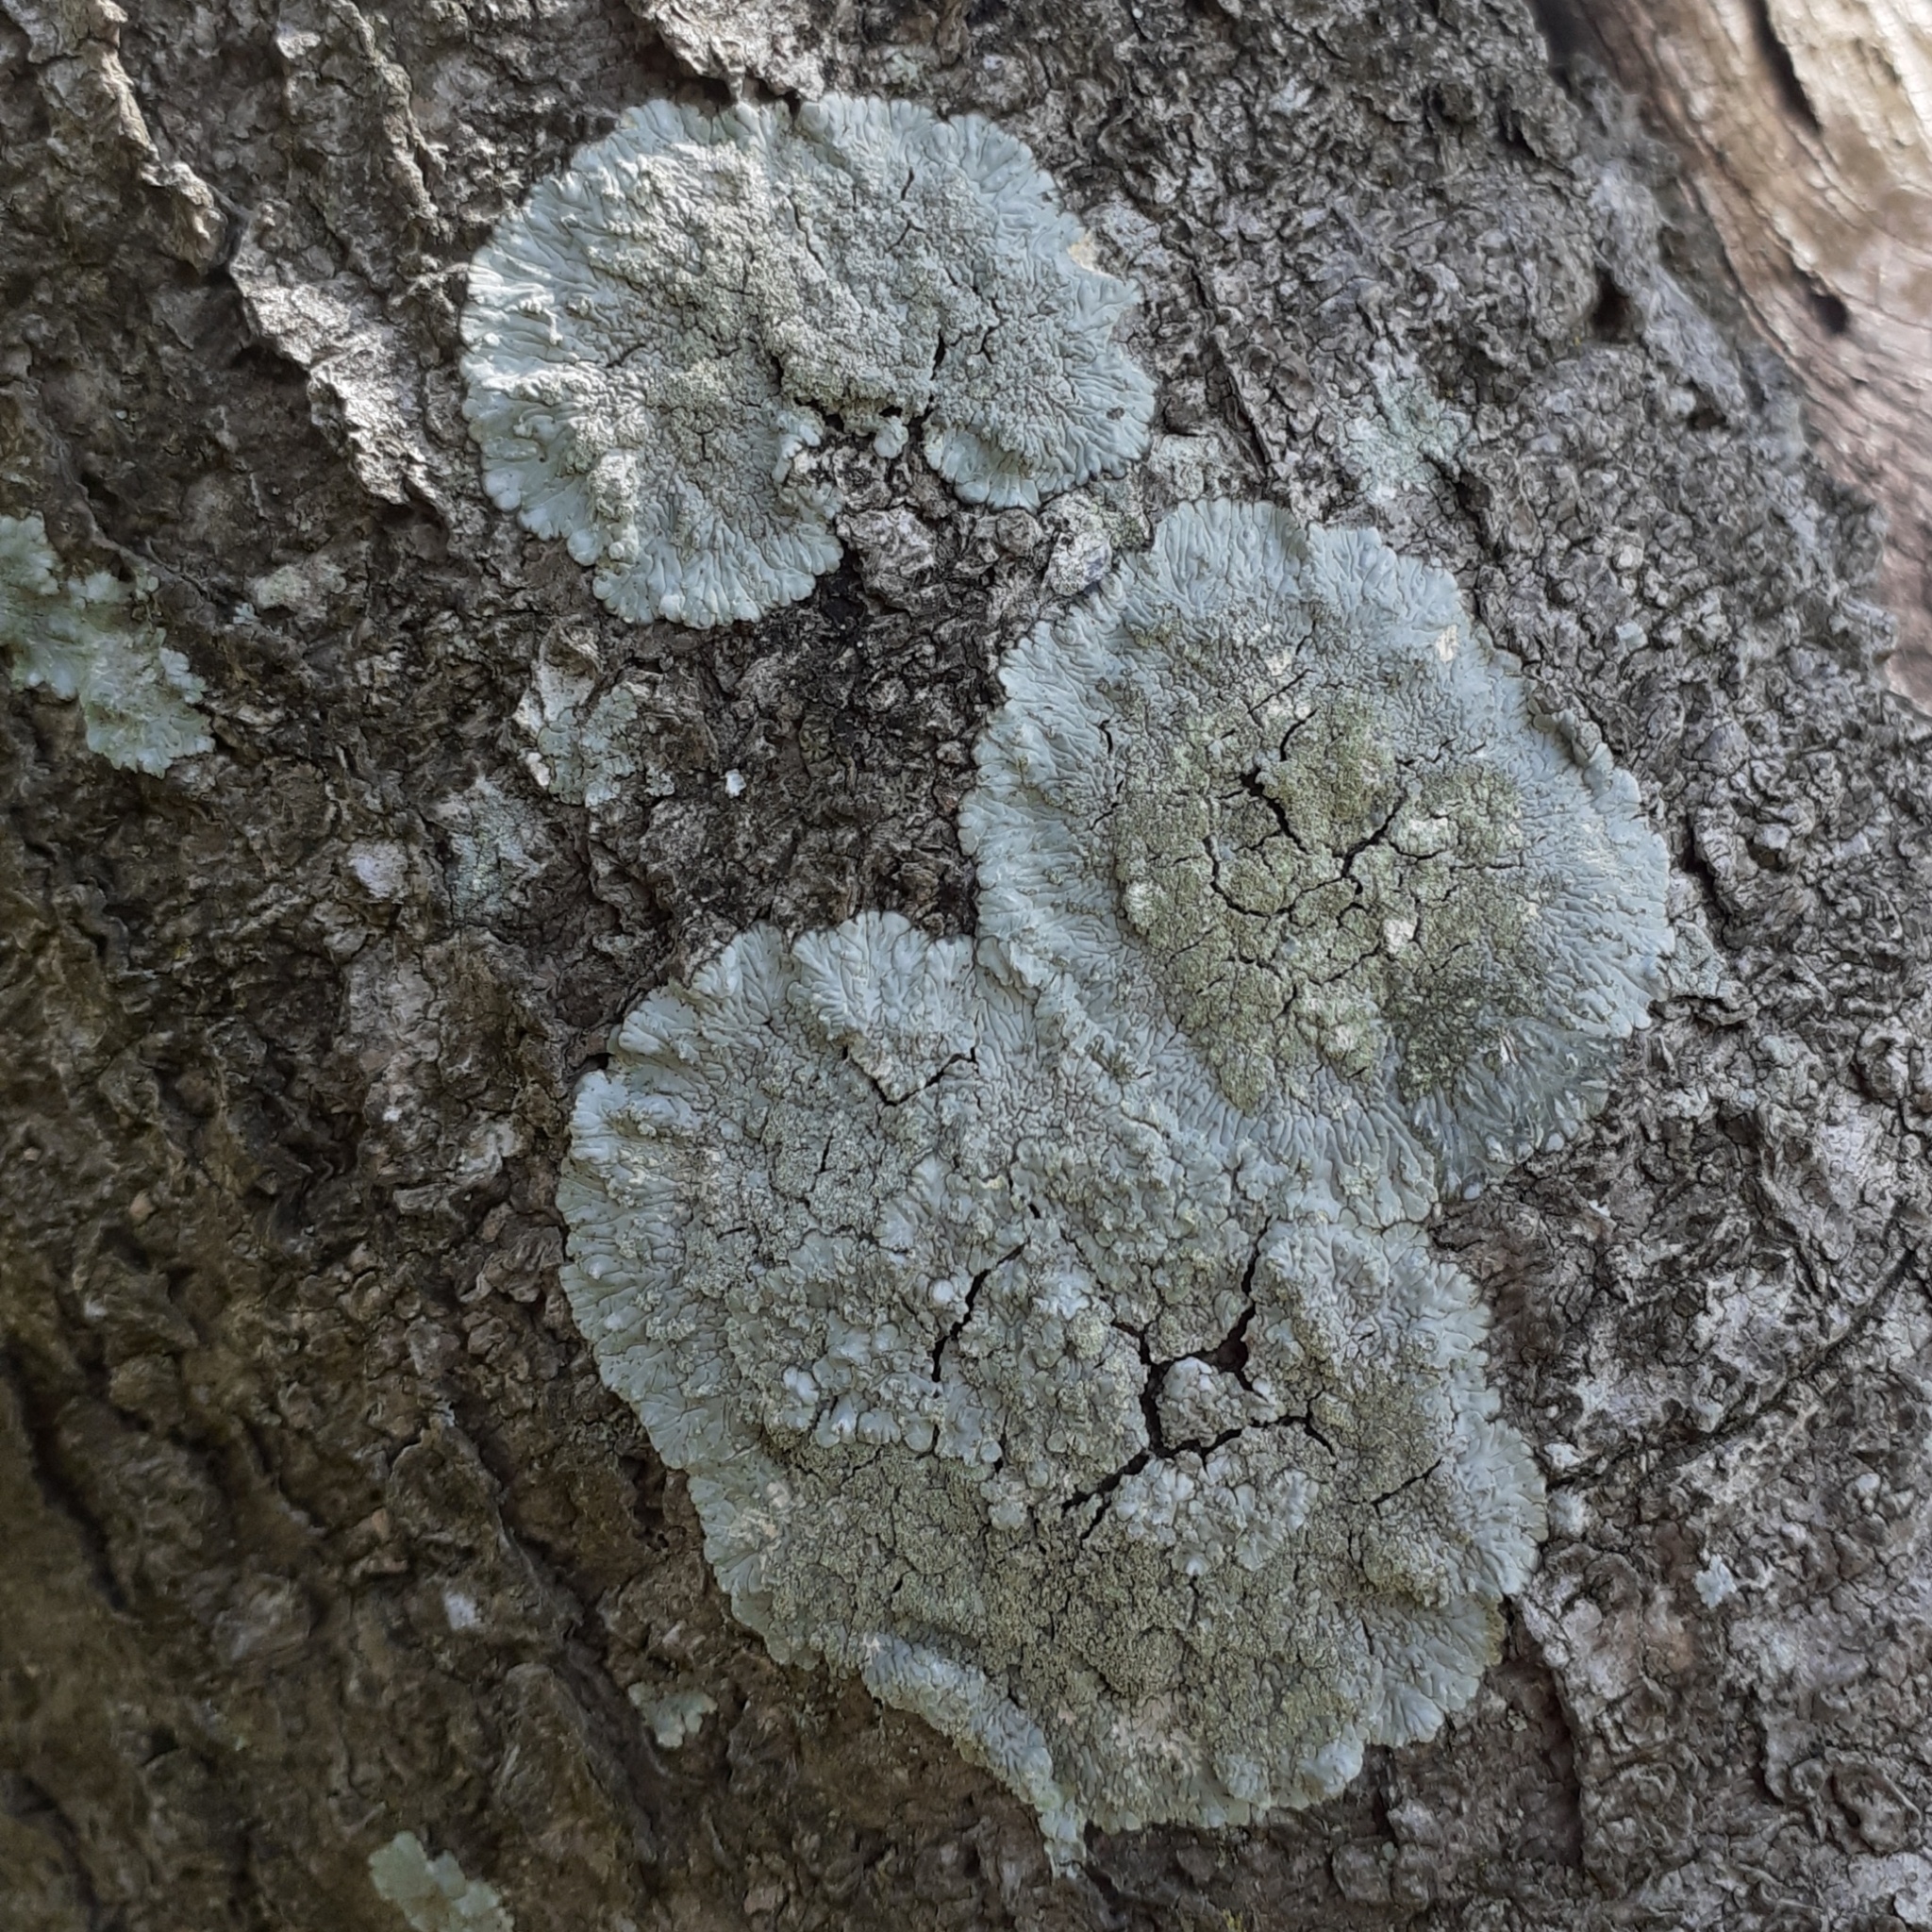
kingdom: Fungi
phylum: Ascomycota
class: Lecanoromycetes
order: Caliciales
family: Caliciaceae
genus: Diploicia
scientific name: Diploicia canescens
